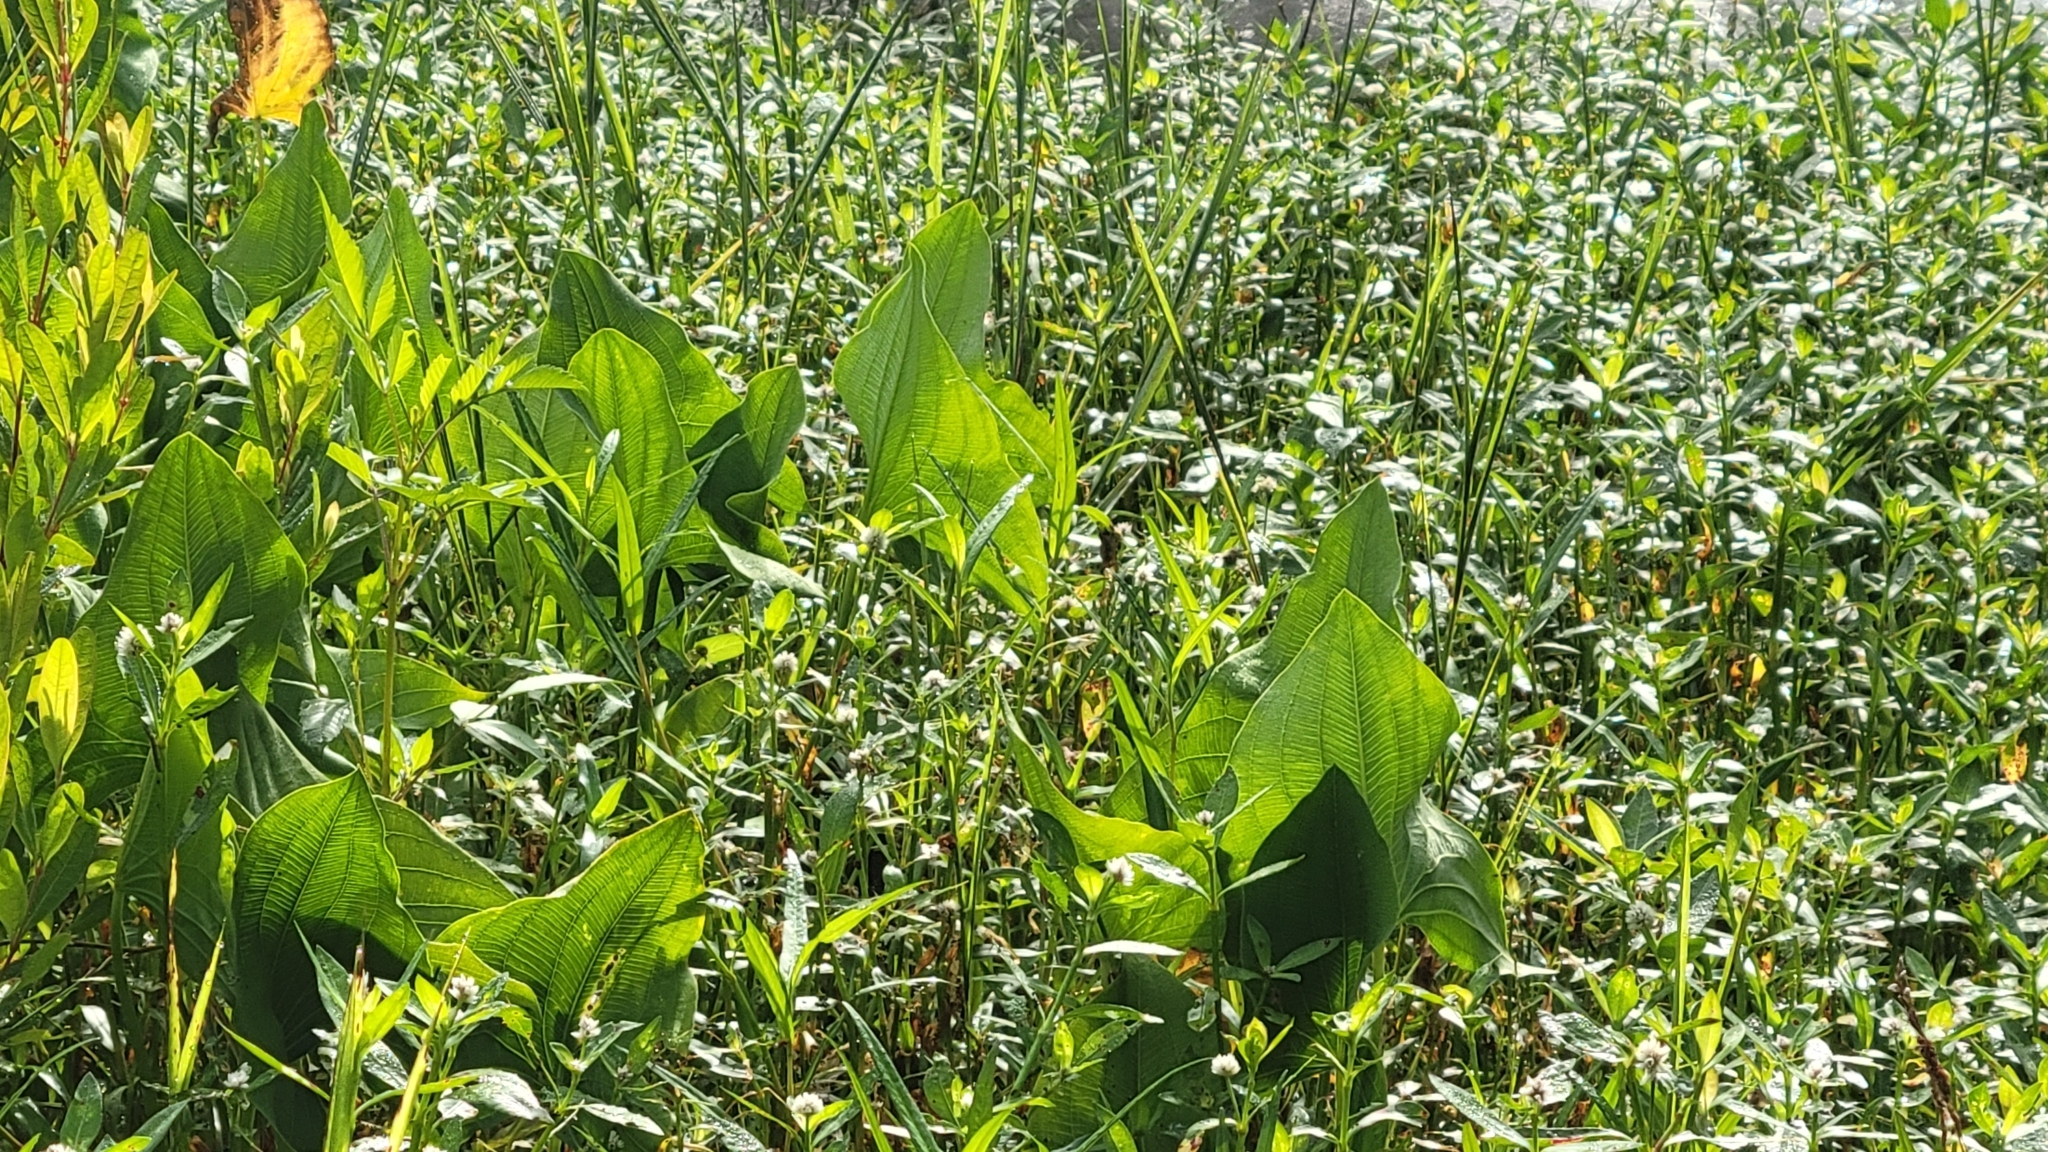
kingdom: Plantae
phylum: Tracheophyta
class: Liliopsida
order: Commelinales
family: Pontederiaceae
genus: Pontederia
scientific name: Pontederia cordata
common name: Pickerelweed
